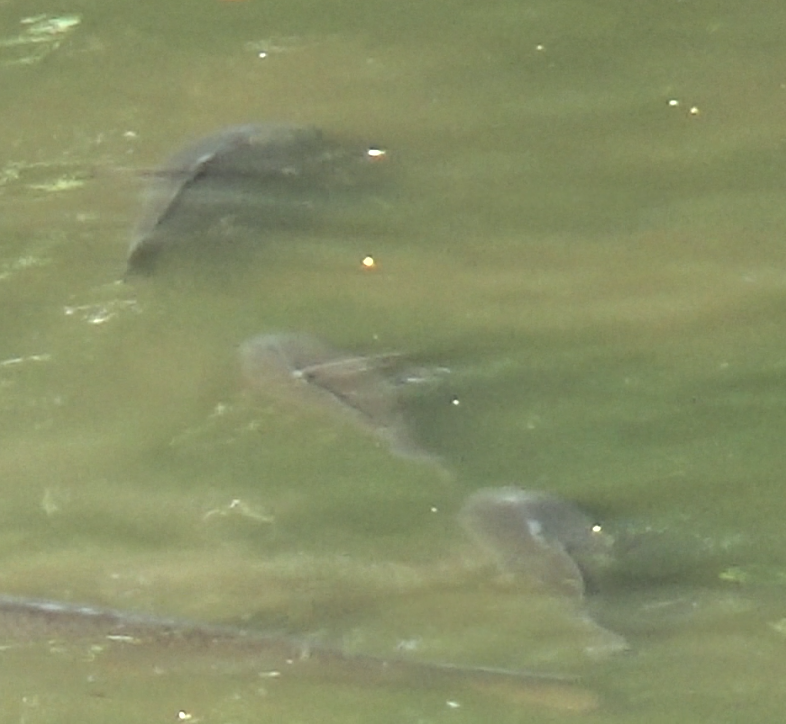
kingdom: Animalia
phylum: Chordata
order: Cypriniformes
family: Cyprinidae
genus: Cyprinus
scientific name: Cyprinus carpio
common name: Common carp
